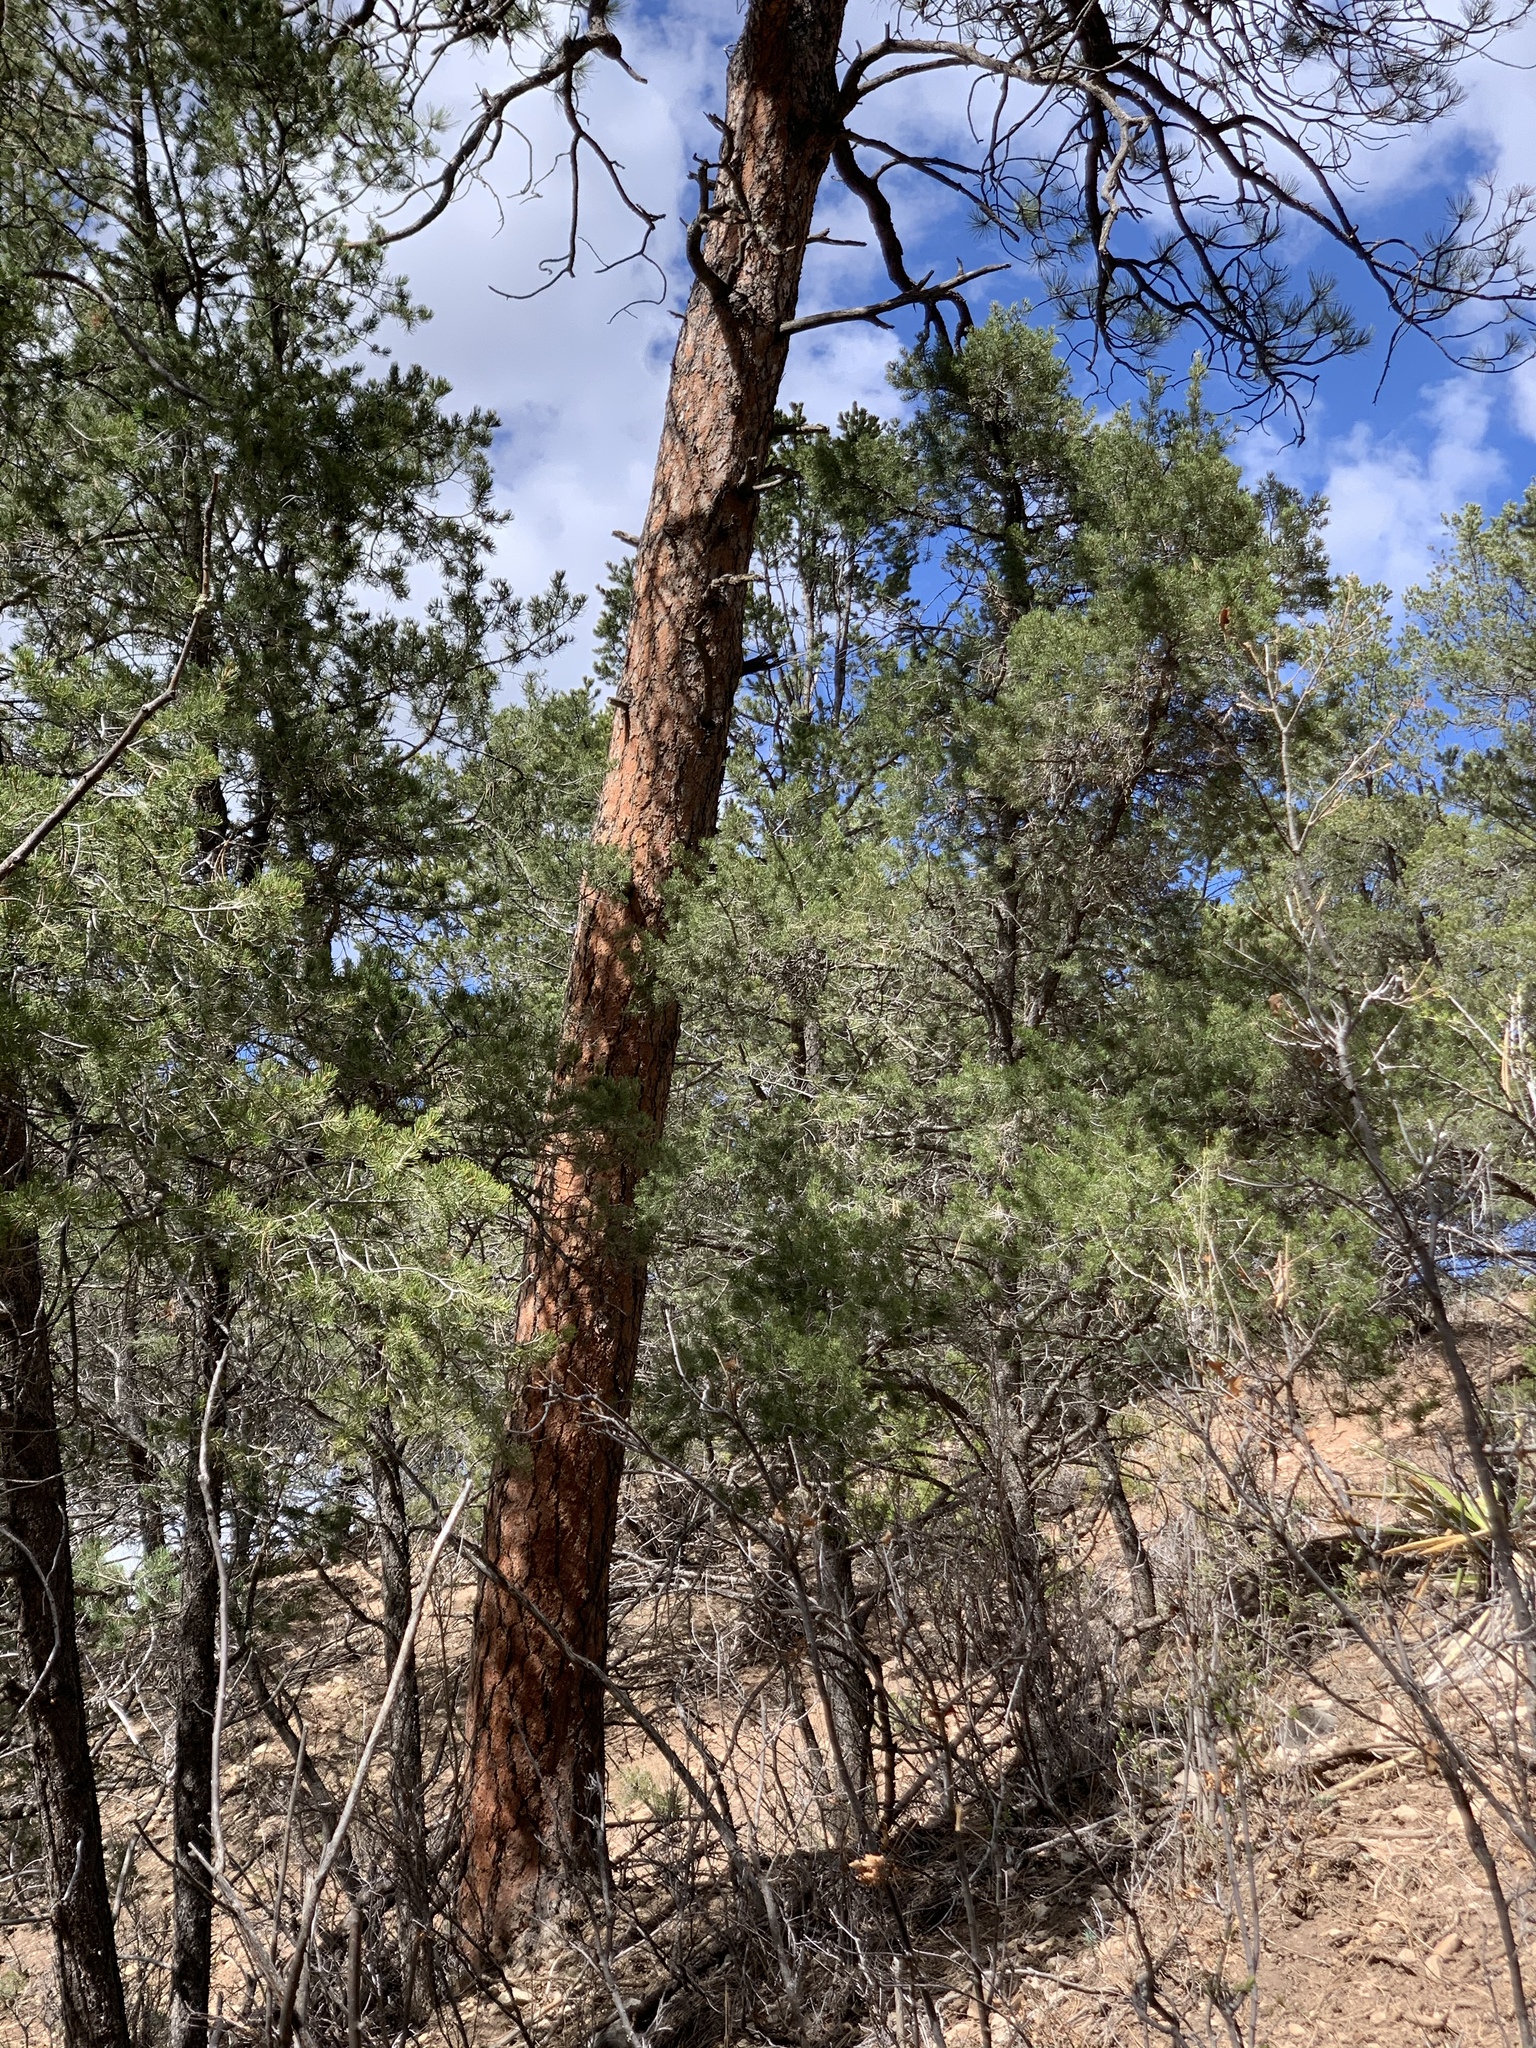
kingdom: Plantae
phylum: Tracheophyta
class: Pinopsida
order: Pinales
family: Pinaceae
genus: Pinus
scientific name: Pinus ponderosa
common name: Western yellow-pine
